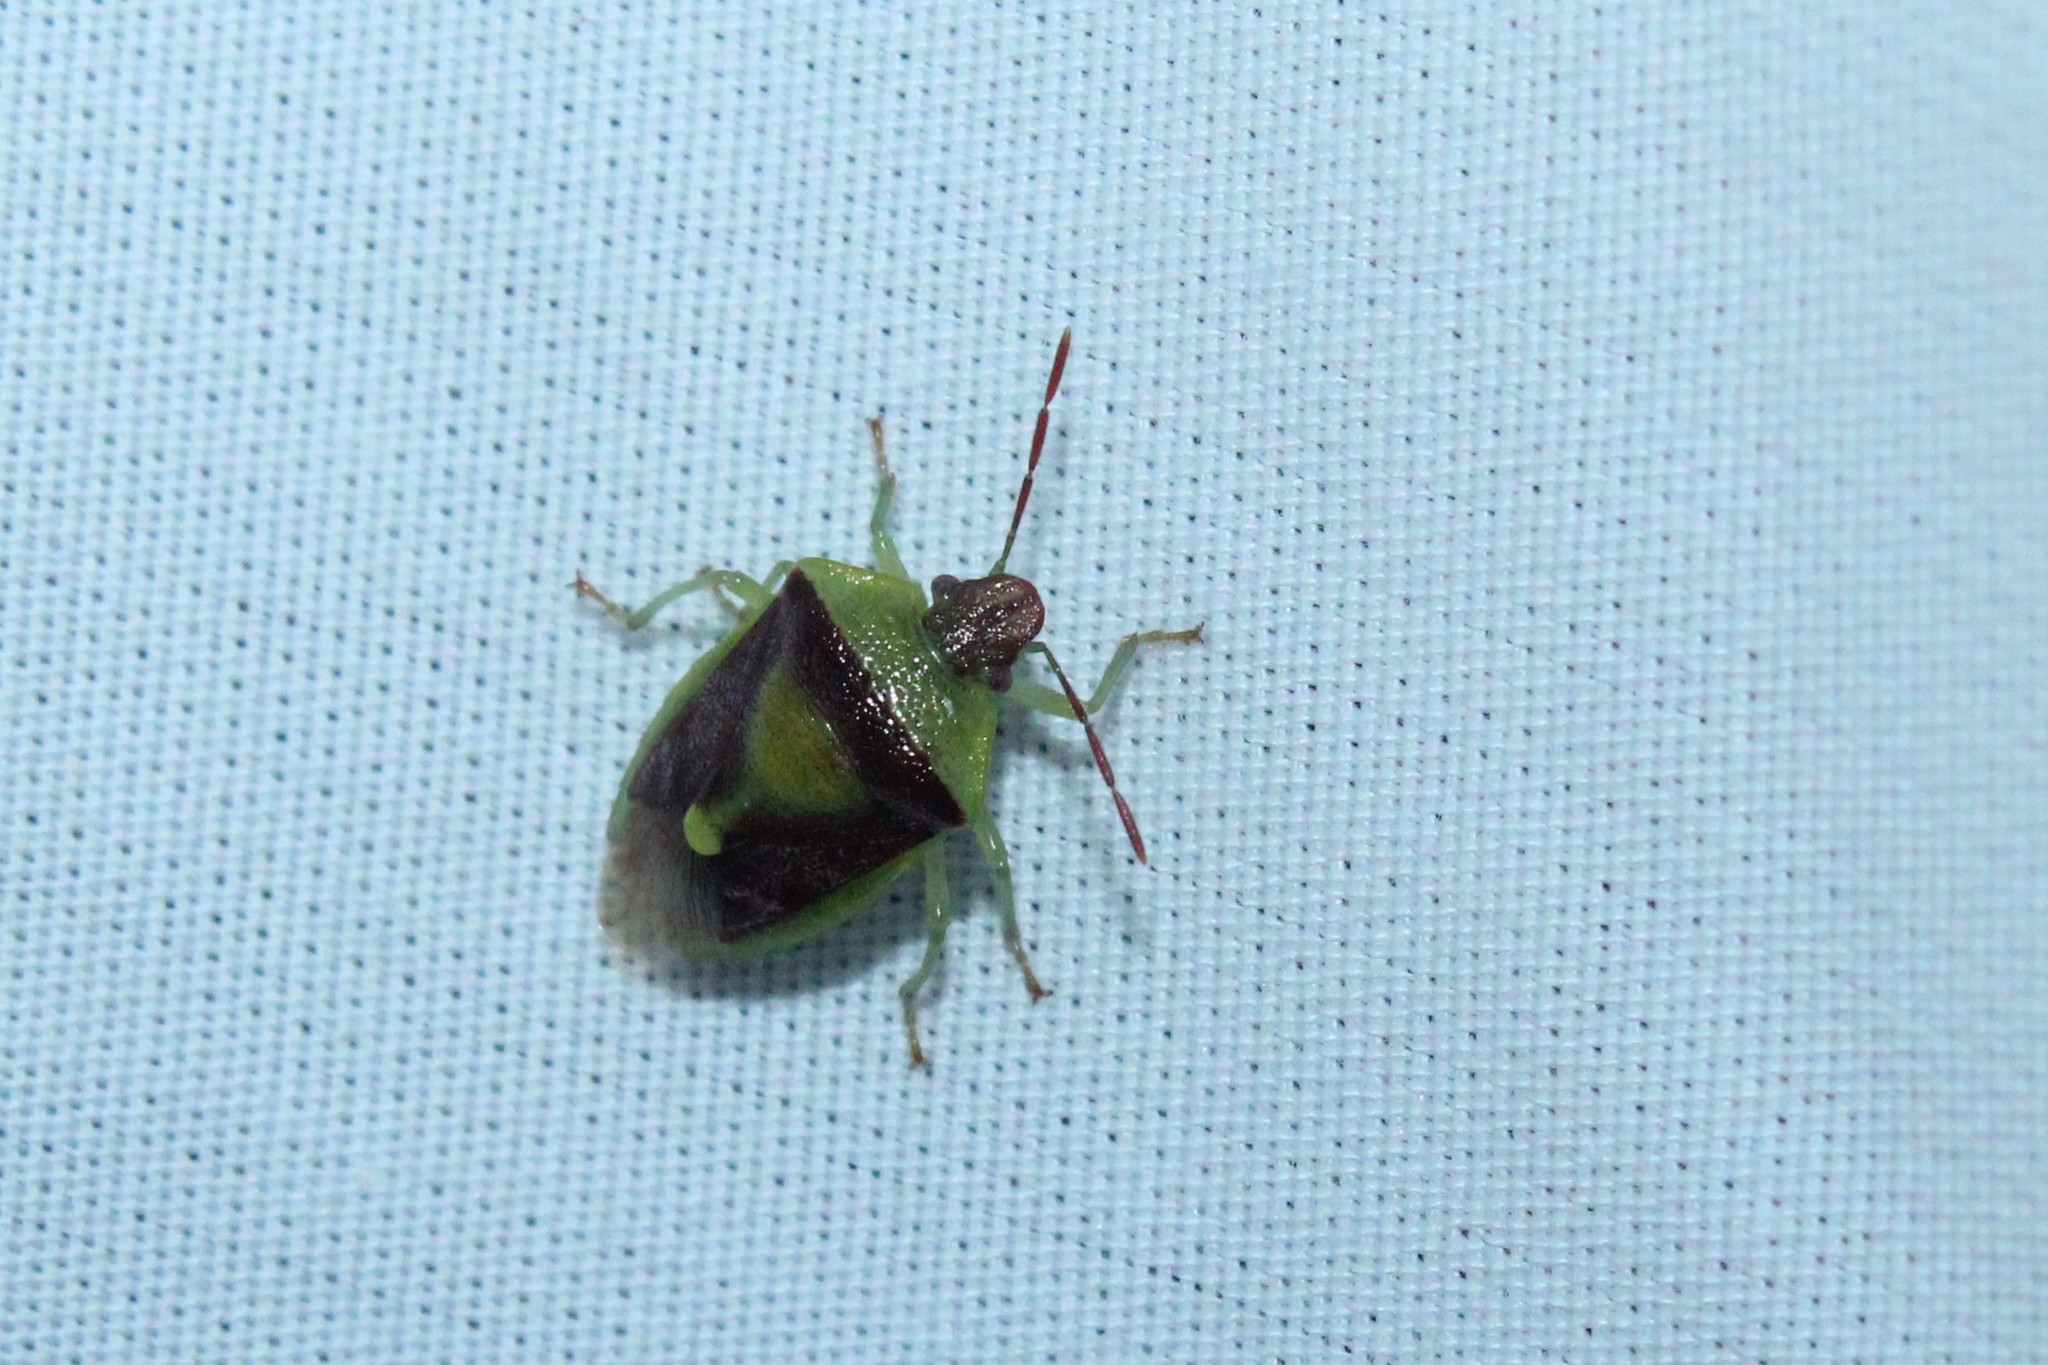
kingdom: Animalia
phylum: Arthropoda
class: Insecta
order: Hemiptera
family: Pentatomidae
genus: Banasa
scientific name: Banasa dimidiata
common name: Green burgundy stink bug
